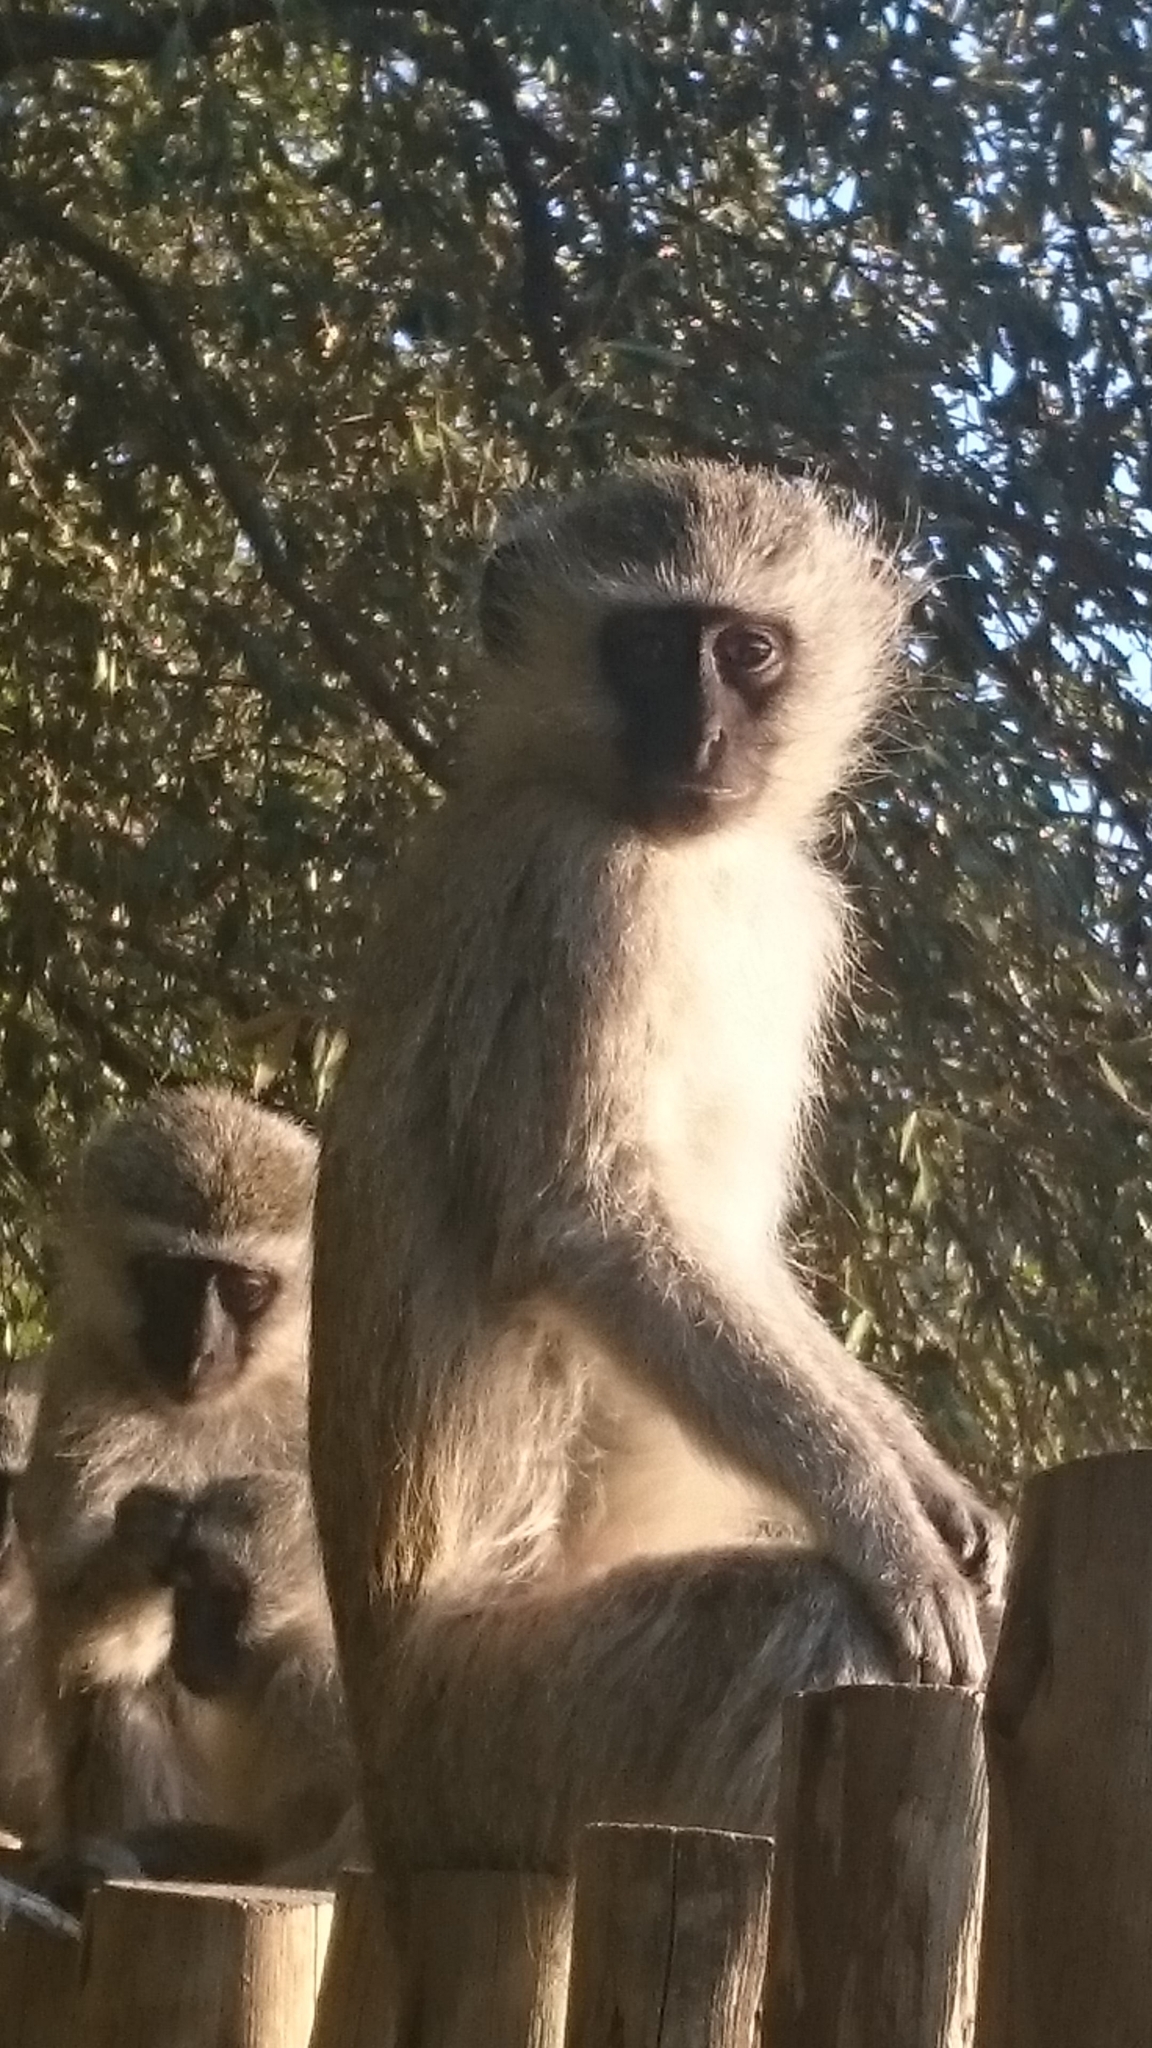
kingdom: Animalia
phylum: Chordata
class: Mammalia
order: Primates
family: Cercopithecidae
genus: Chlorocebus
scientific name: Chlorocebus pygerythrus
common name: Vervet monkey
